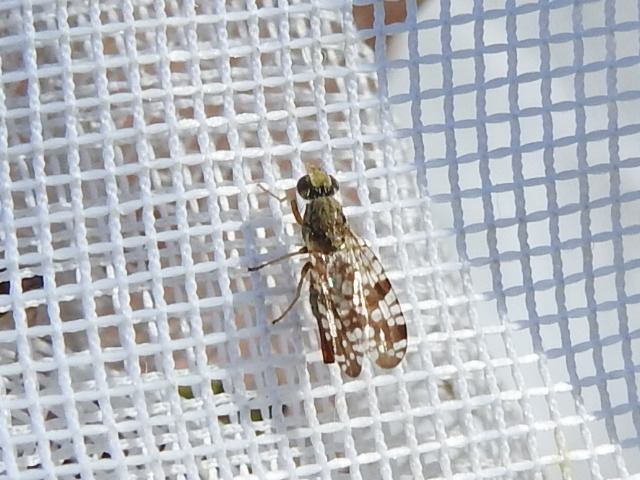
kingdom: Animalia
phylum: Arthropoda
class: Insecta
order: Diptera
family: Tephritidae
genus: Neotephritis
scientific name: Neotephritis finalis
